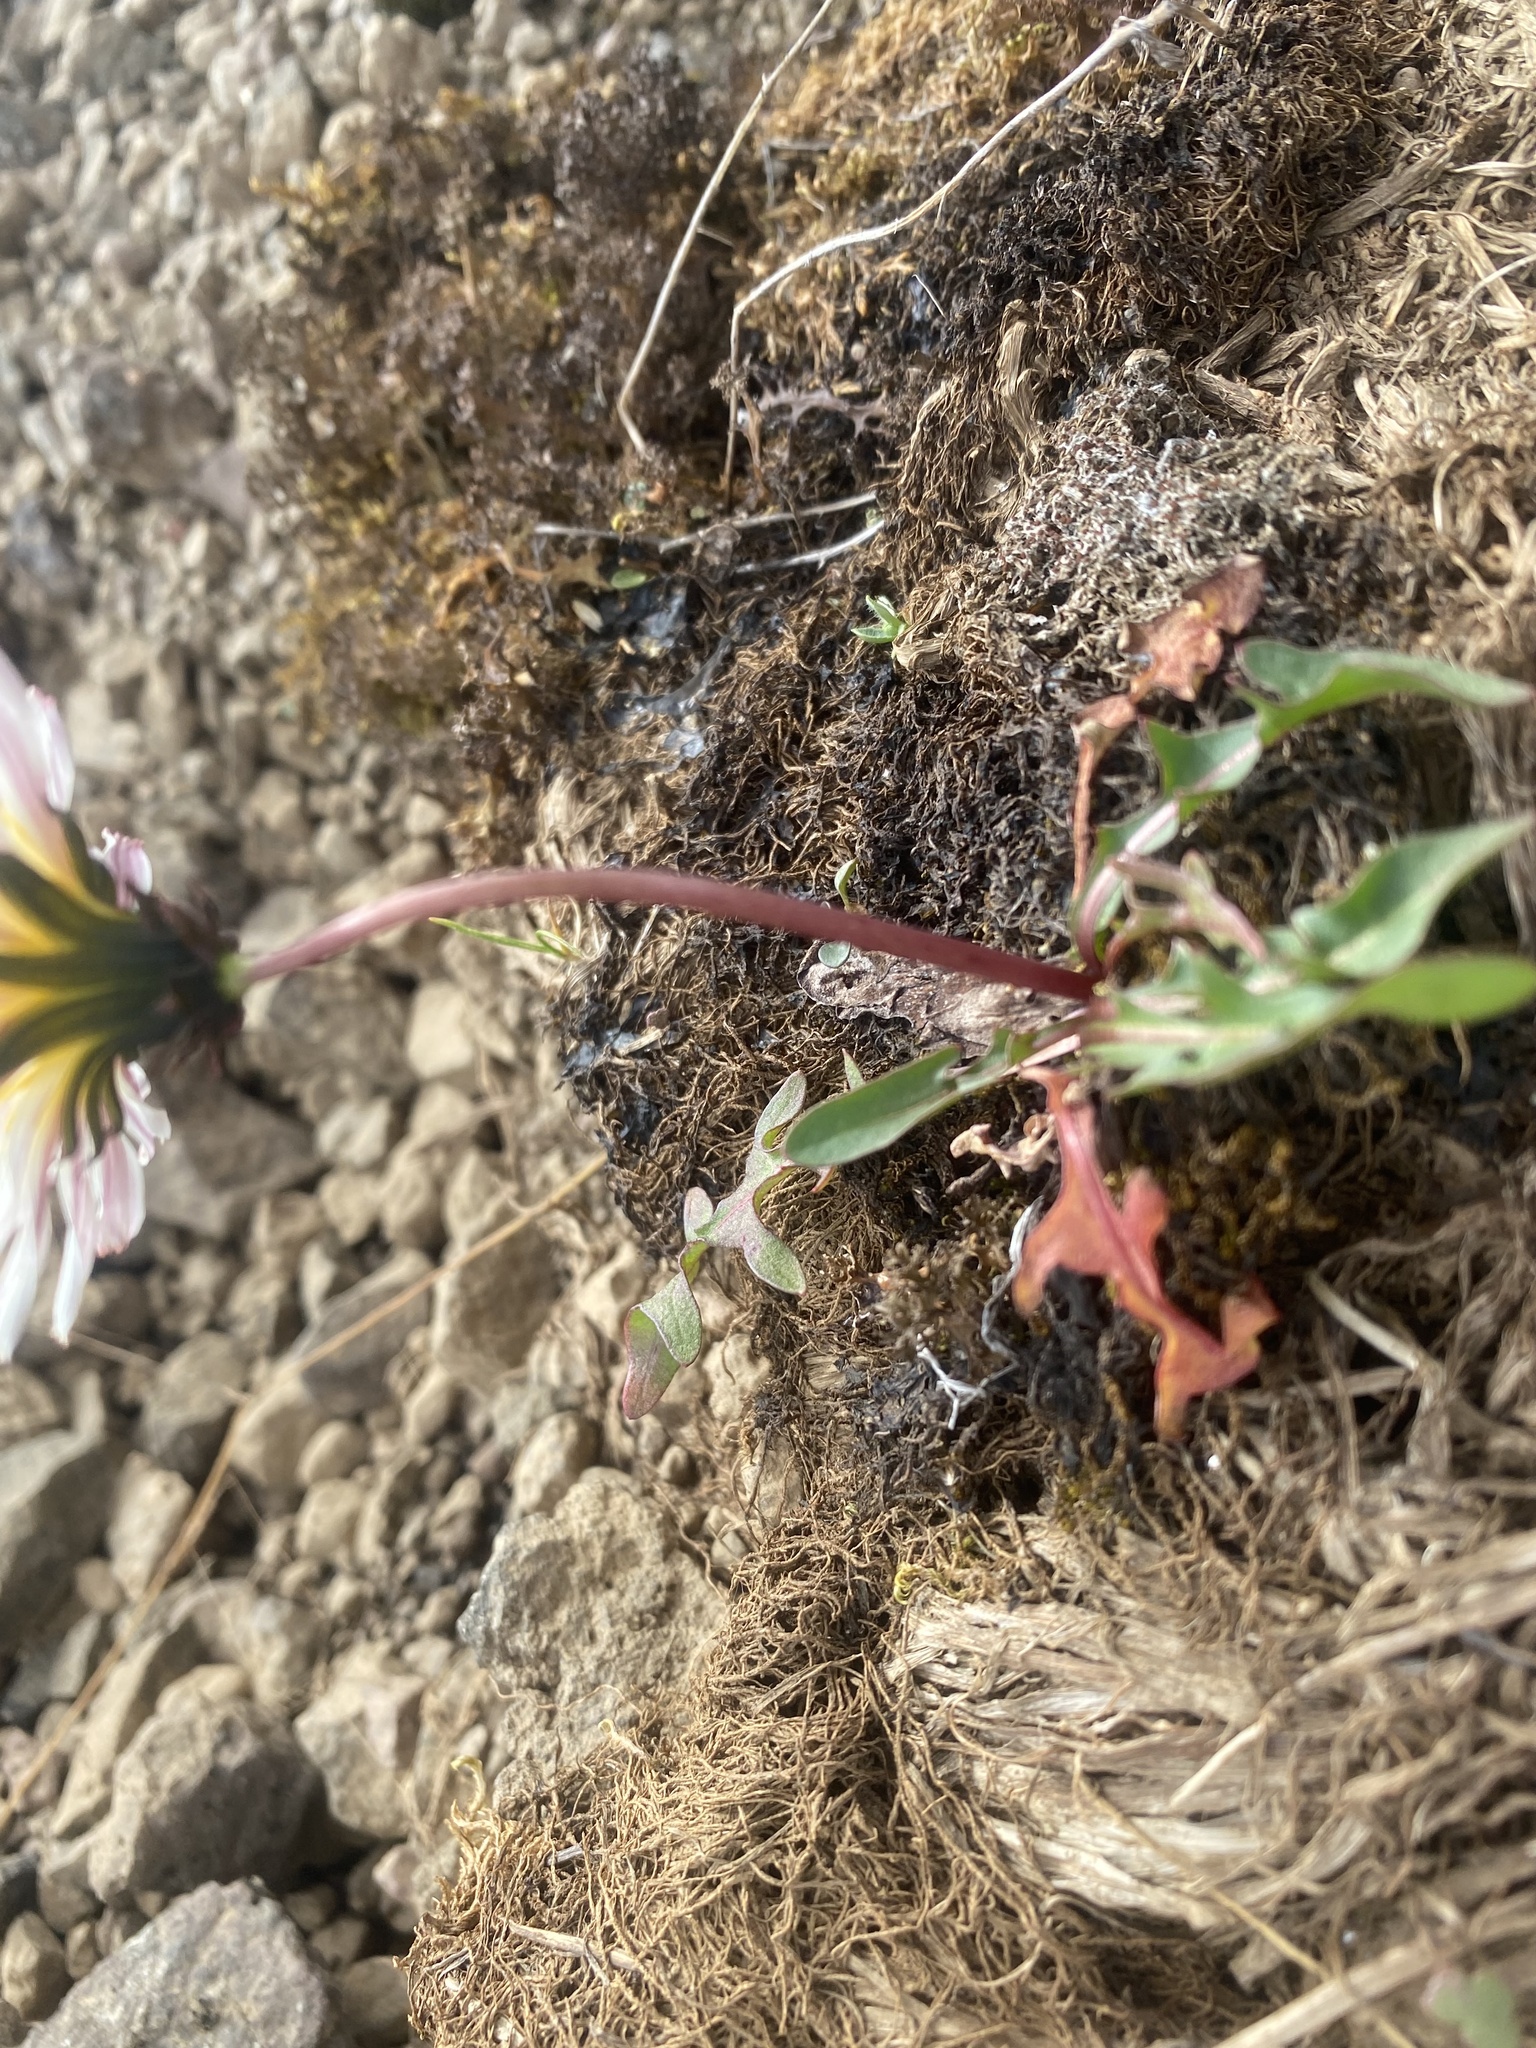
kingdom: Plantae
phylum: Tracheophyta
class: Magnoliopsida
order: Asterales
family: Asteraceae
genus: Taraxacum
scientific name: Taraxacum arcticum
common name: Arctic dandelion
